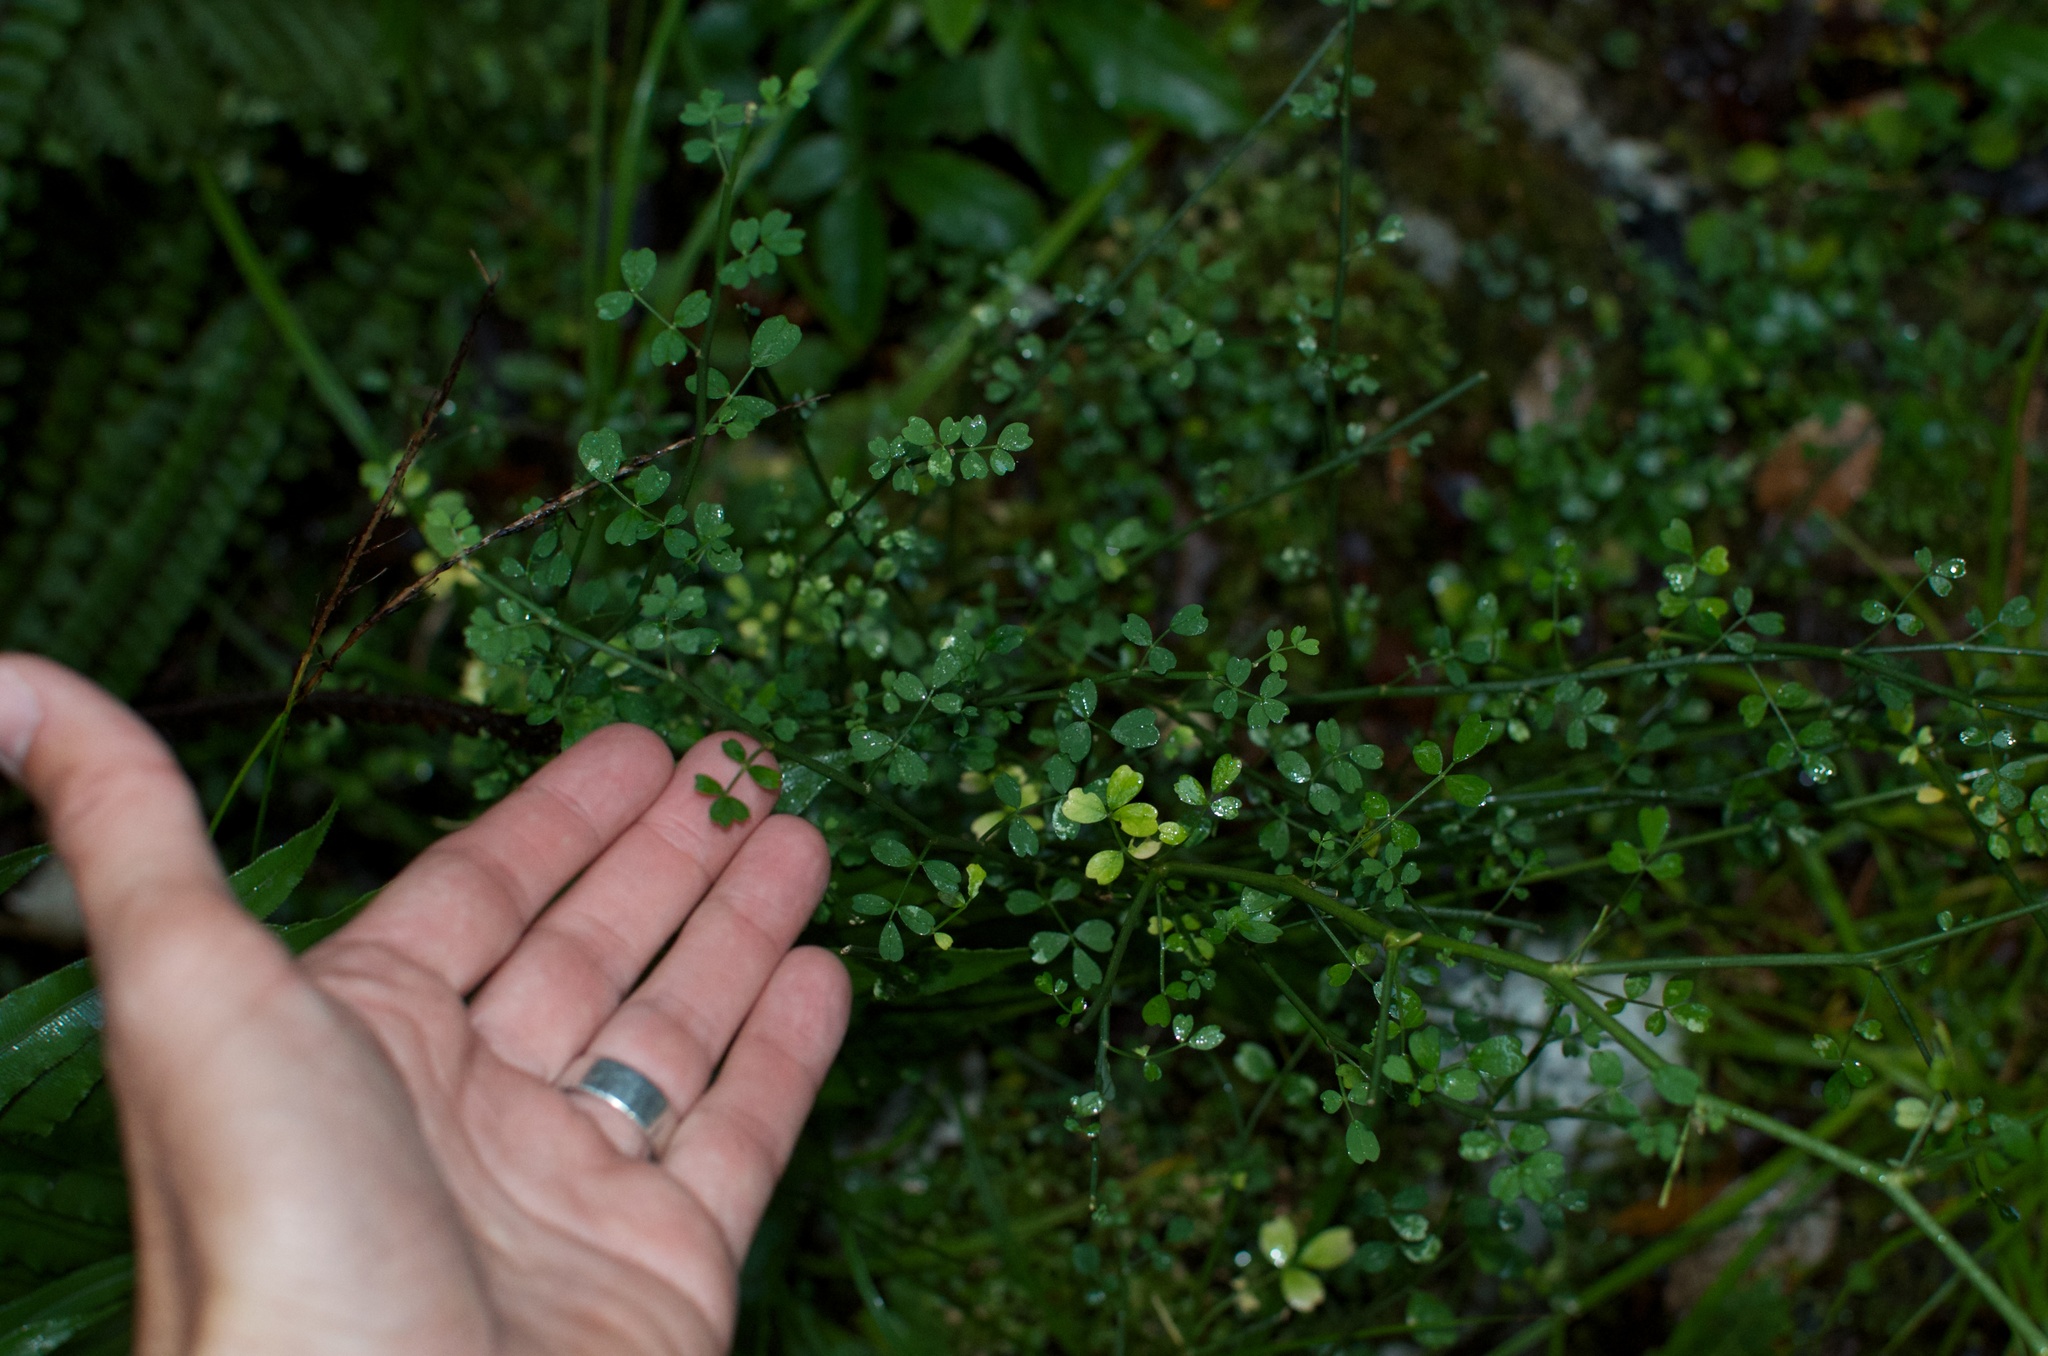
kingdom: Plantae
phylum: Tracheophyta
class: Magnoliopsida
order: Fabales
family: Fabaceae
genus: Carmichaelia
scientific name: Carmichaelia australis
